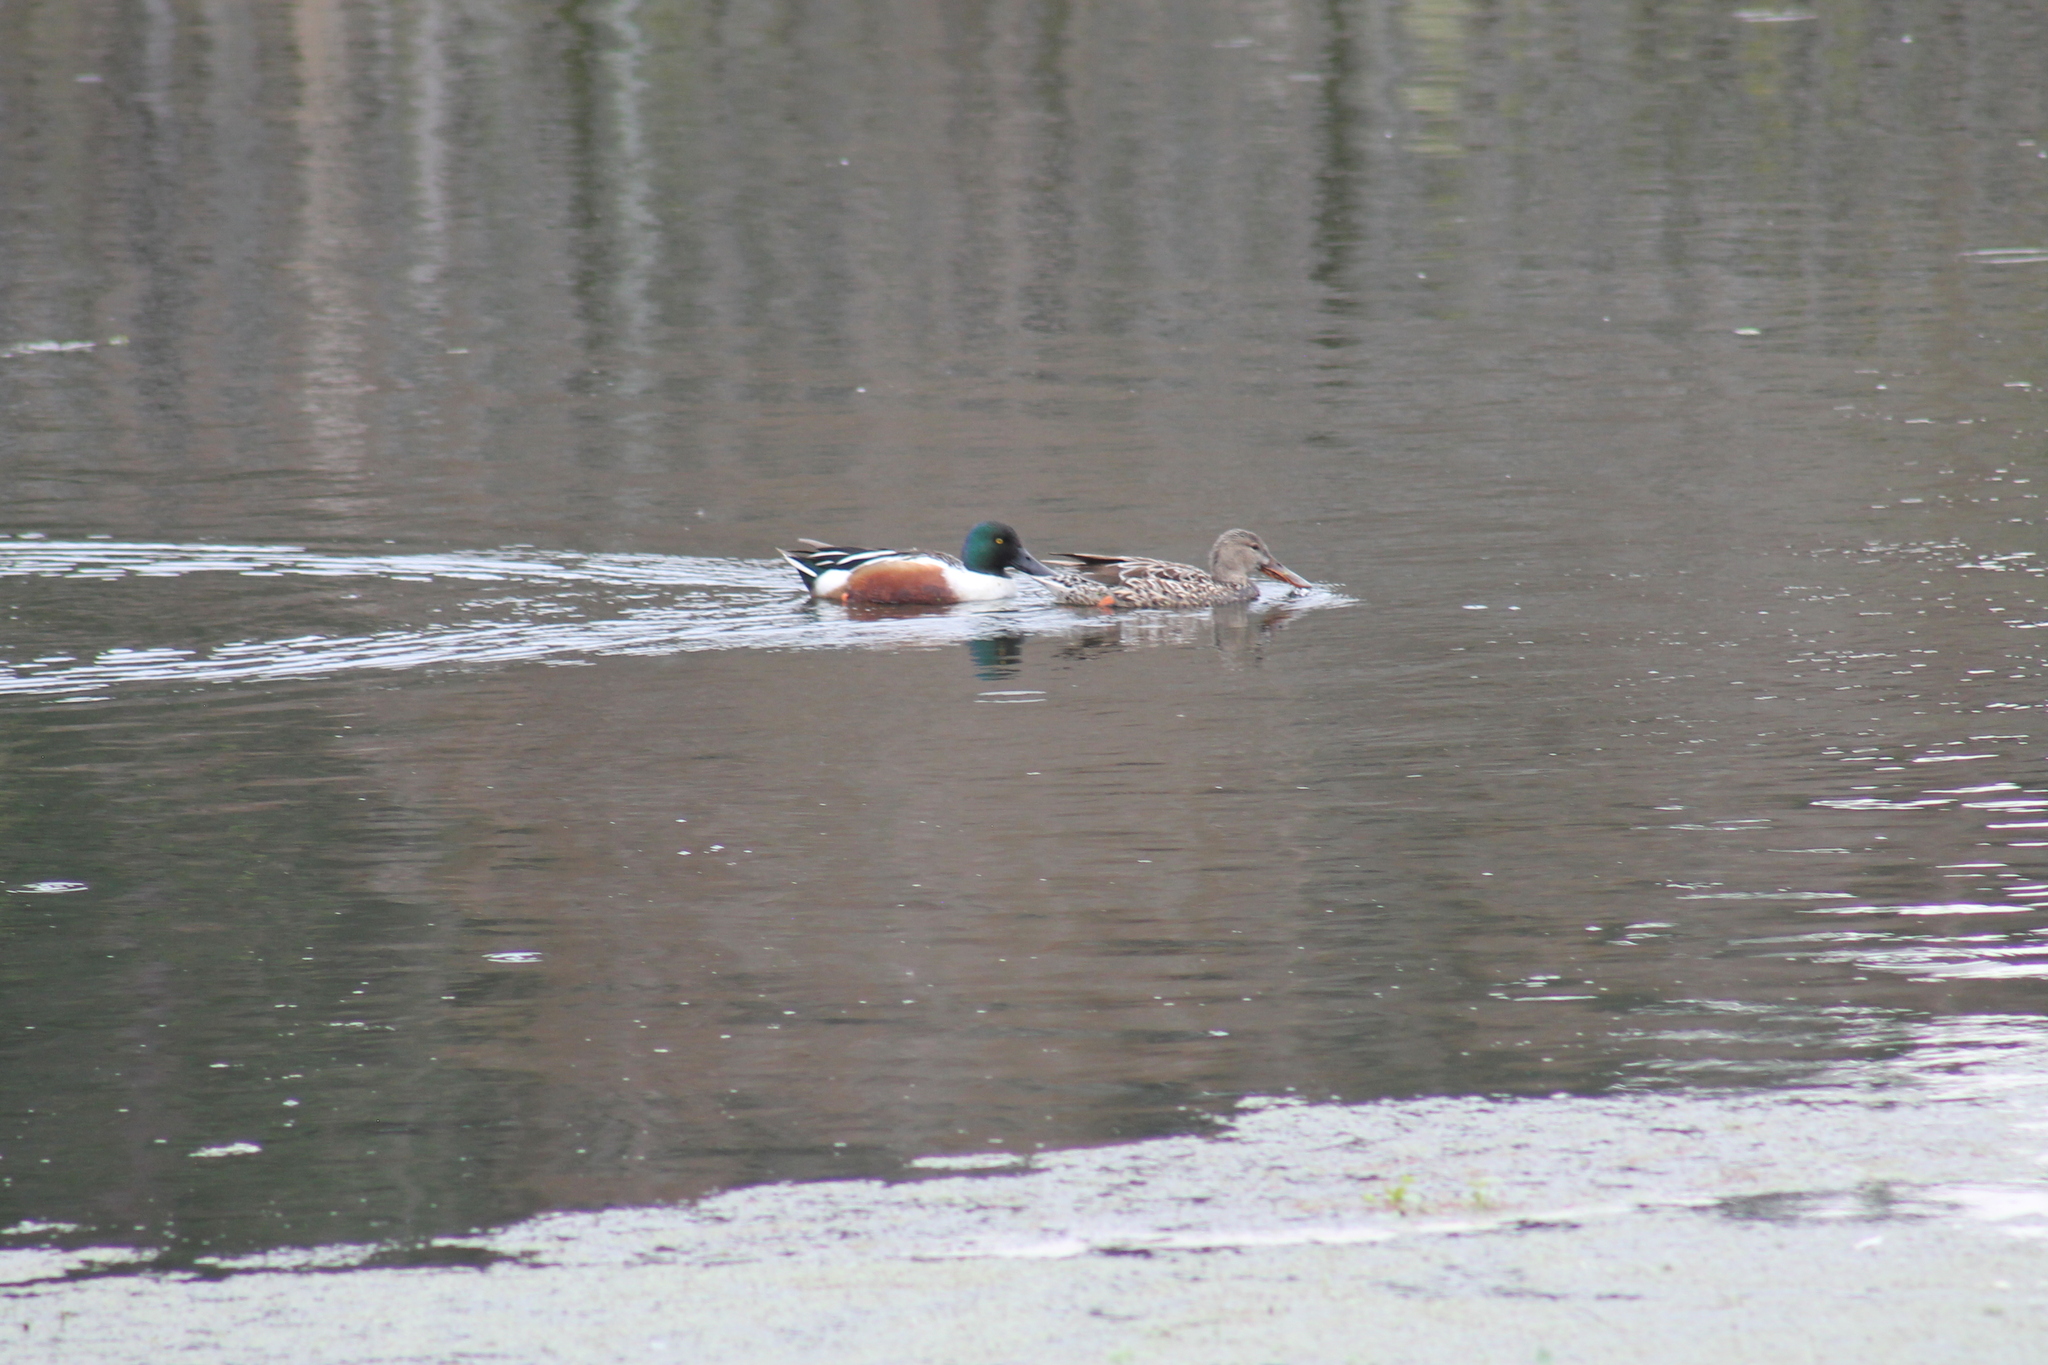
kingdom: Animalia
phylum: Chordata
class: Aves
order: Anseriformes
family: Anatidae
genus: Spatula
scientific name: Spatula clypeata
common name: Northern shoveler
